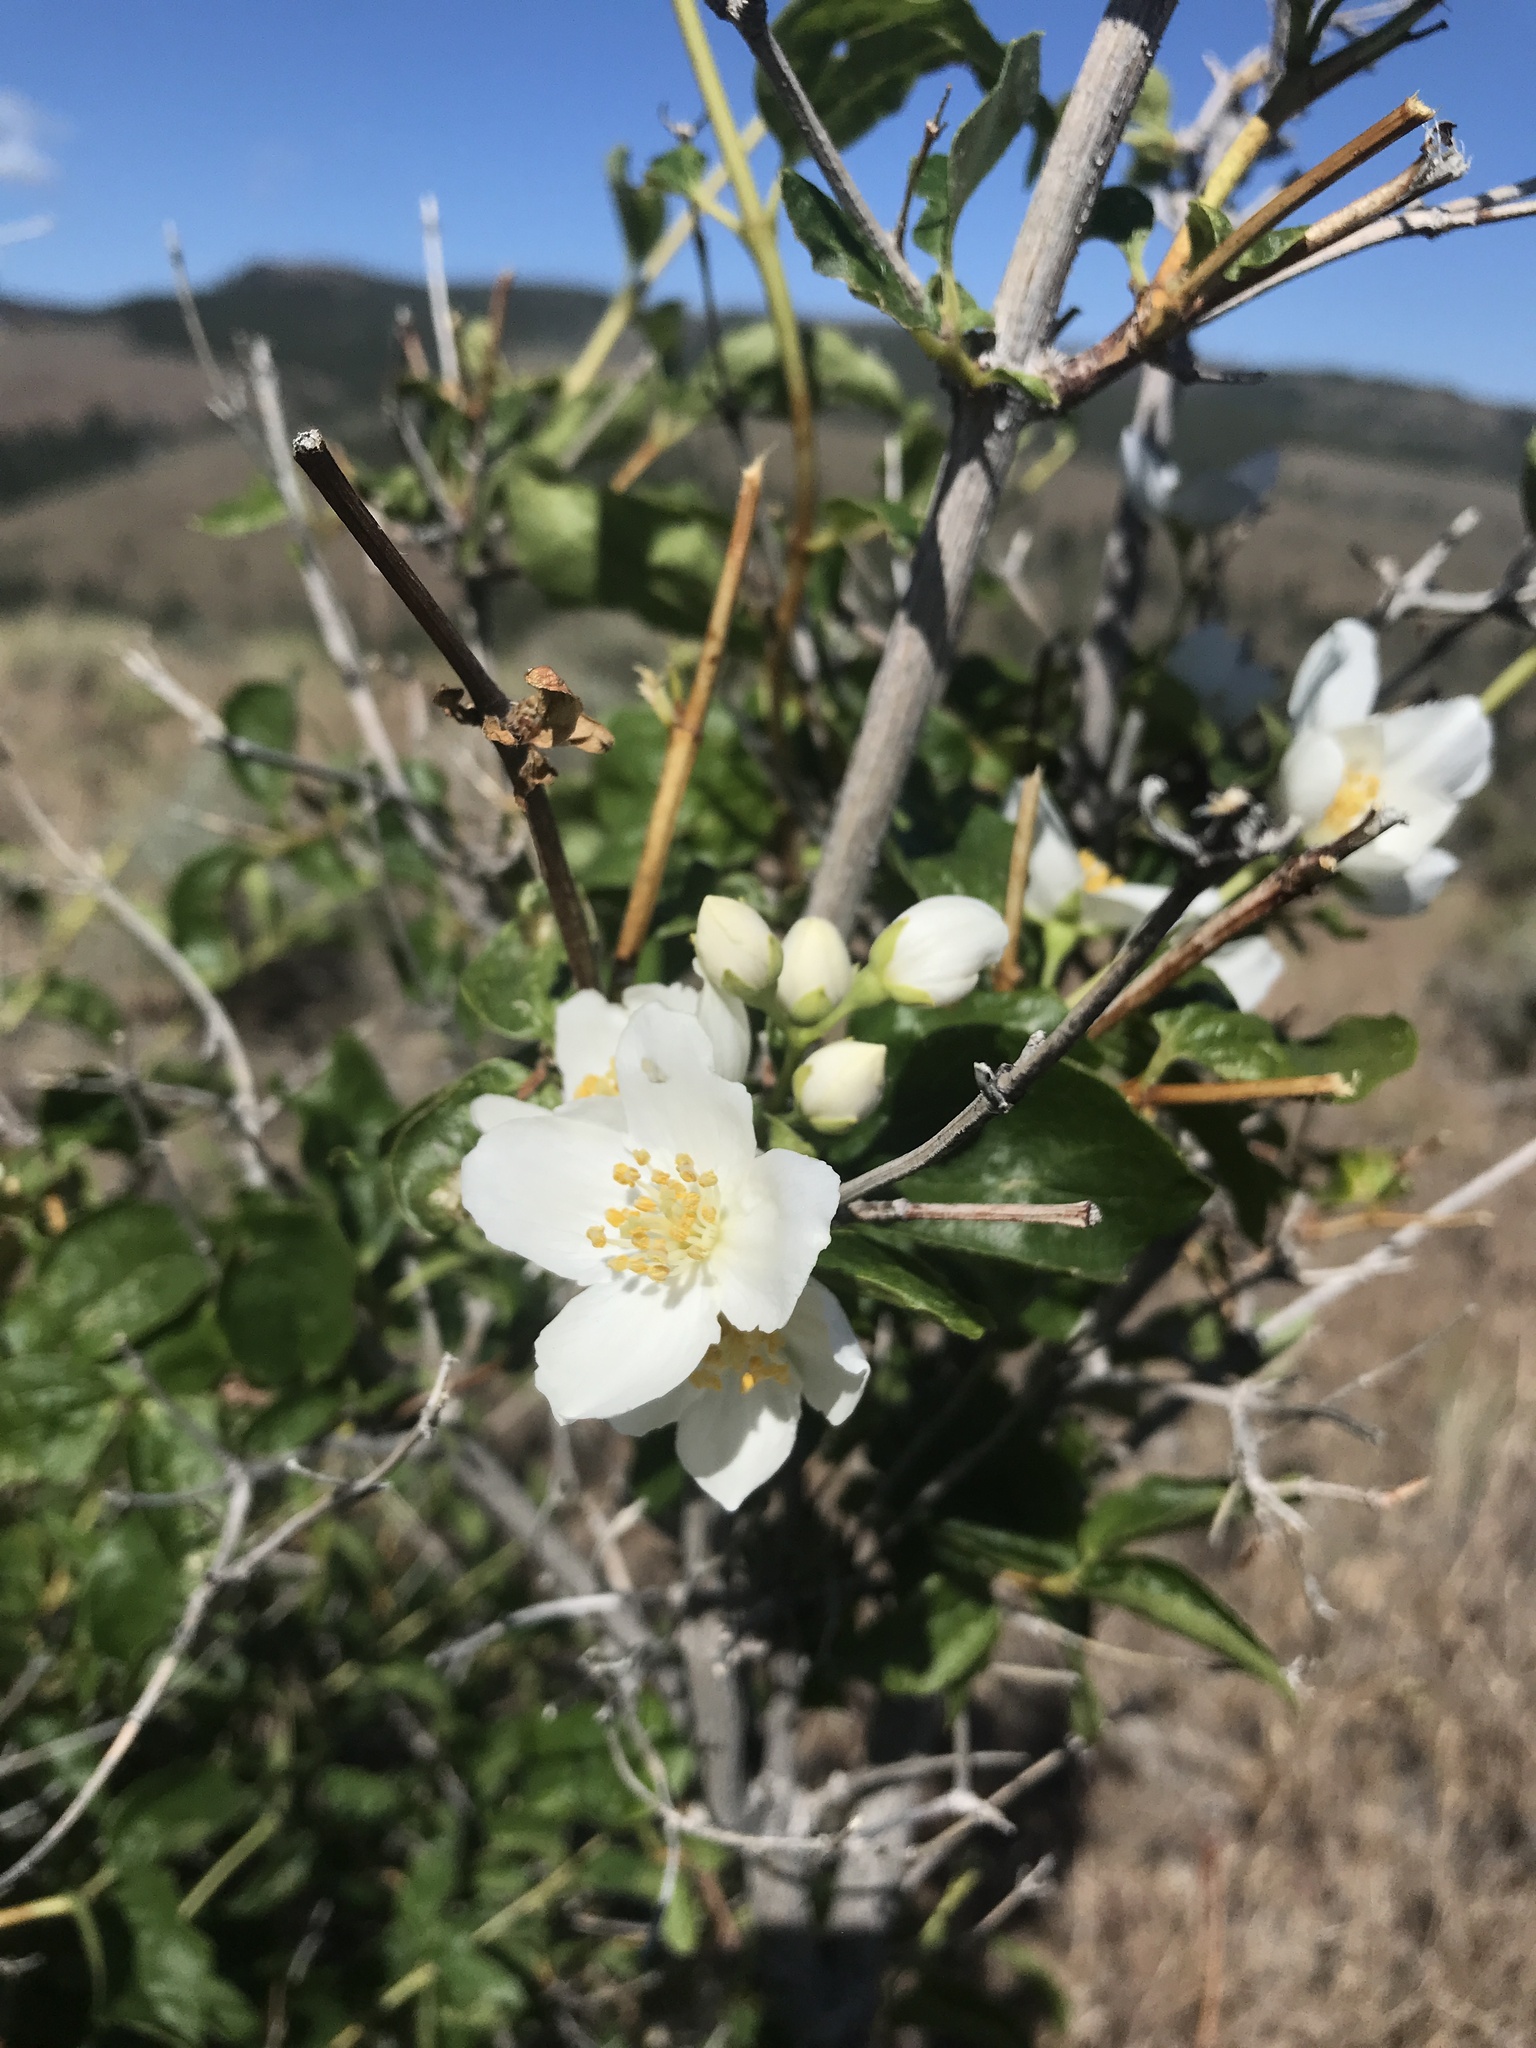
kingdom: Plantae
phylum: Tracheophyta
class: Magnoliopsida
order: Cornales
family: Hydrangeaceae
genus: Philadelphus
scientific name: Philadelphus lewisii
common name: Lewis's mock orange
